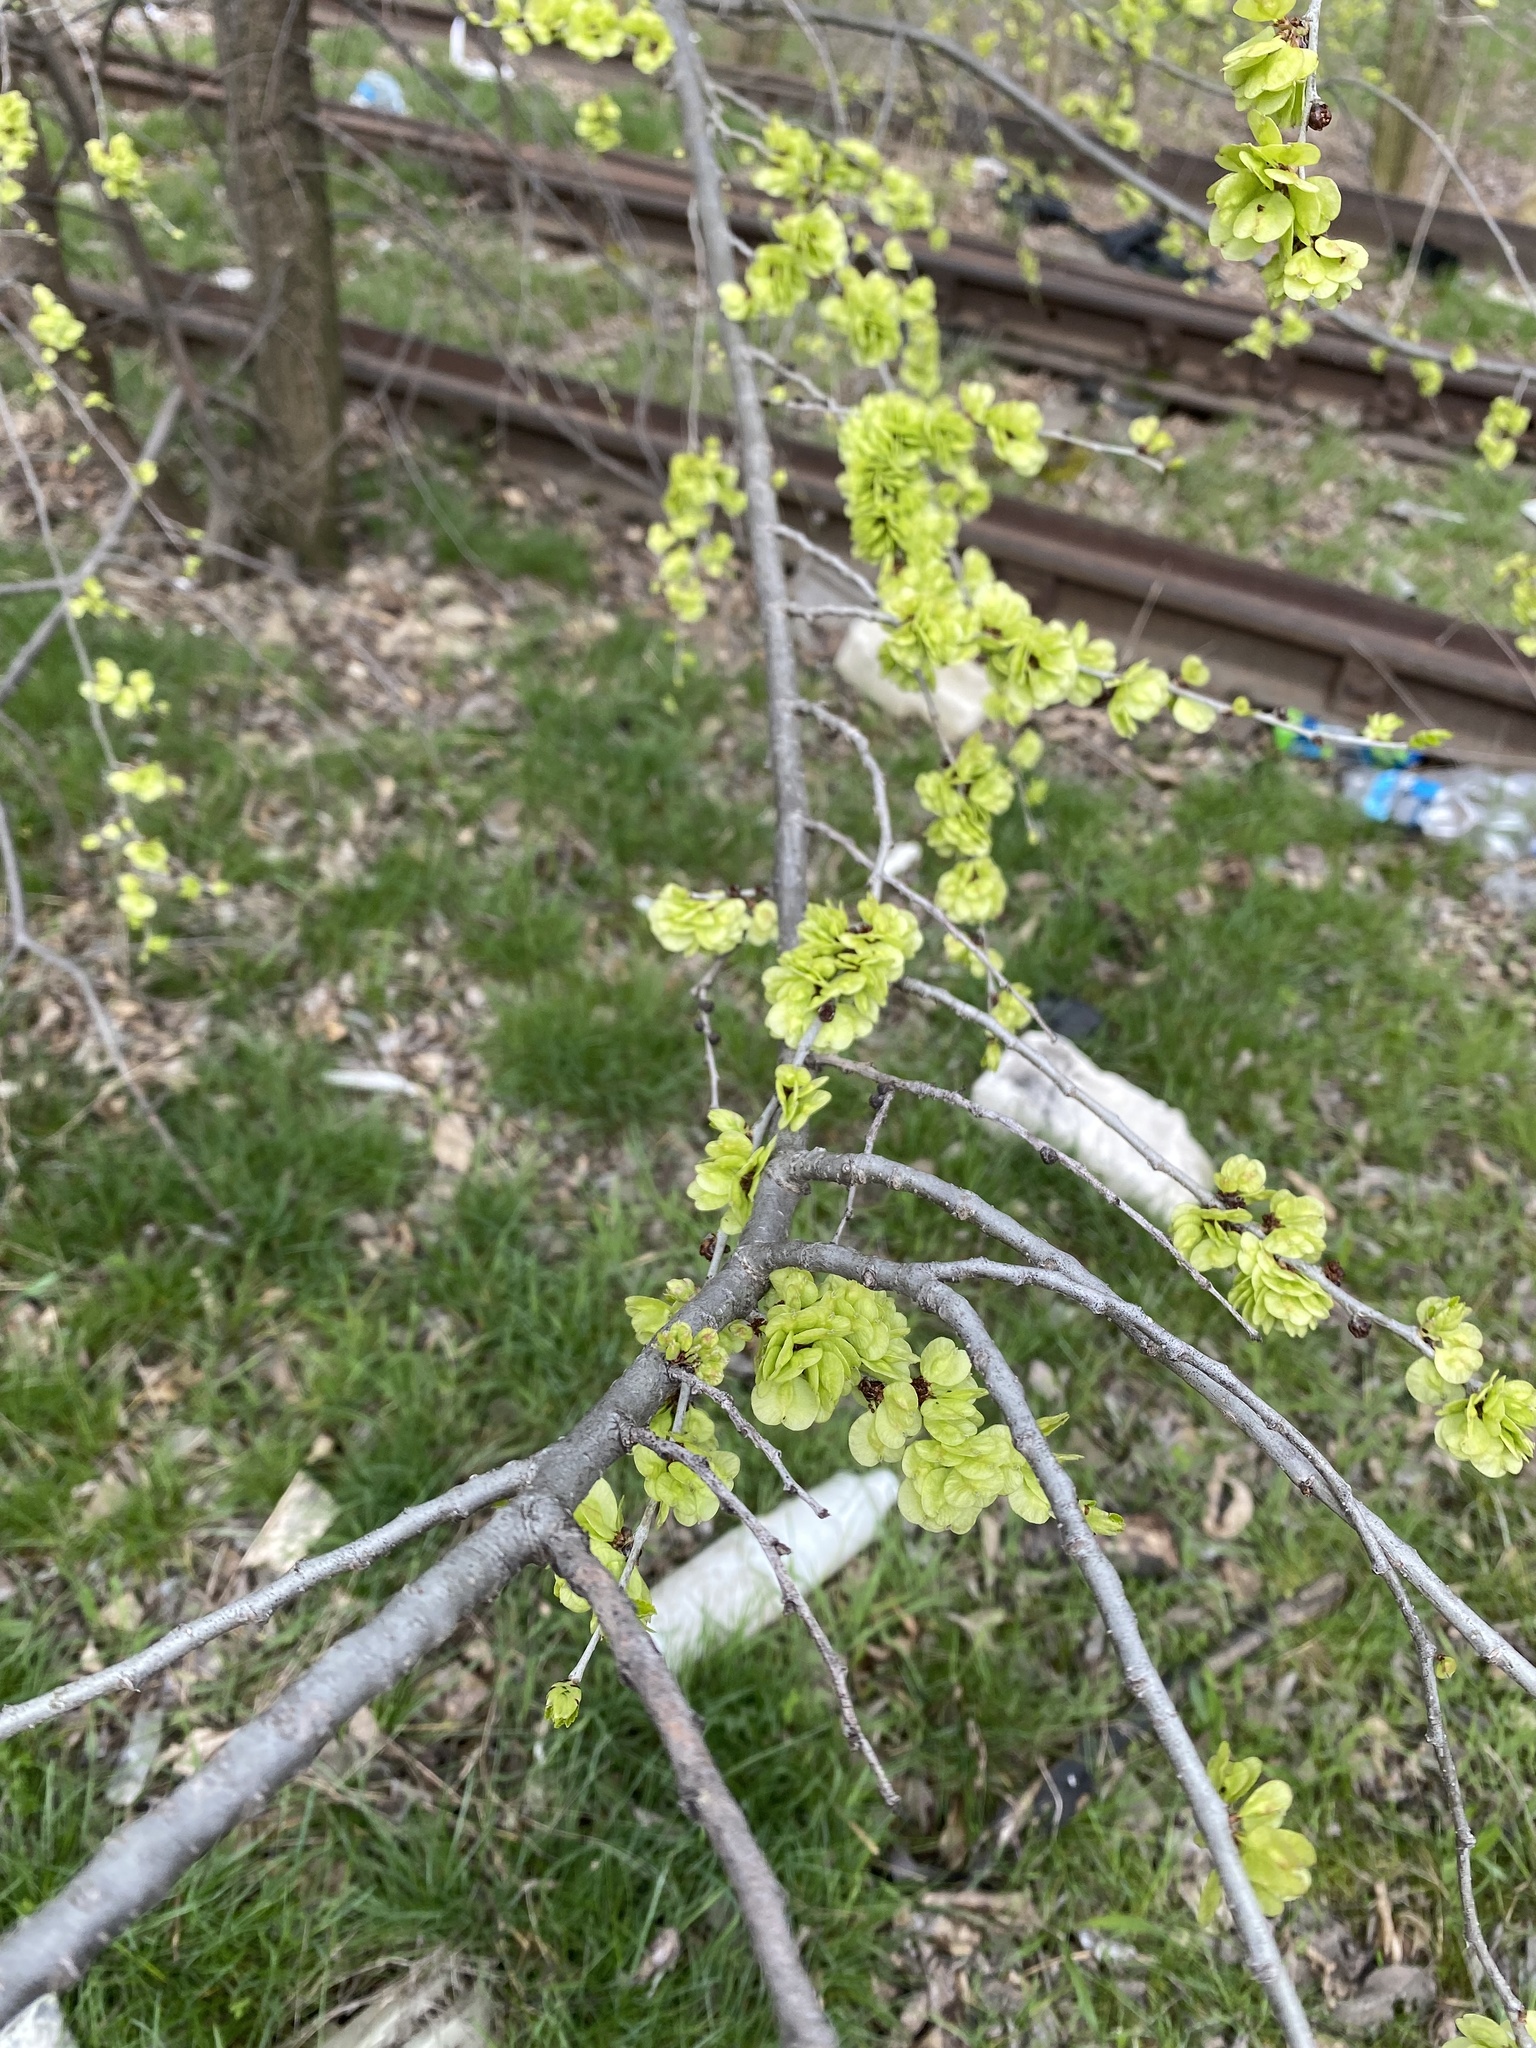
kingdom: Plantae
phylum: Tracheophyta
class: Magnoliopsida
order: Rosales
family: Ulmaceae
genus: Ulmus
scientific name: Ulmus pumila
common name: Siberian elm
